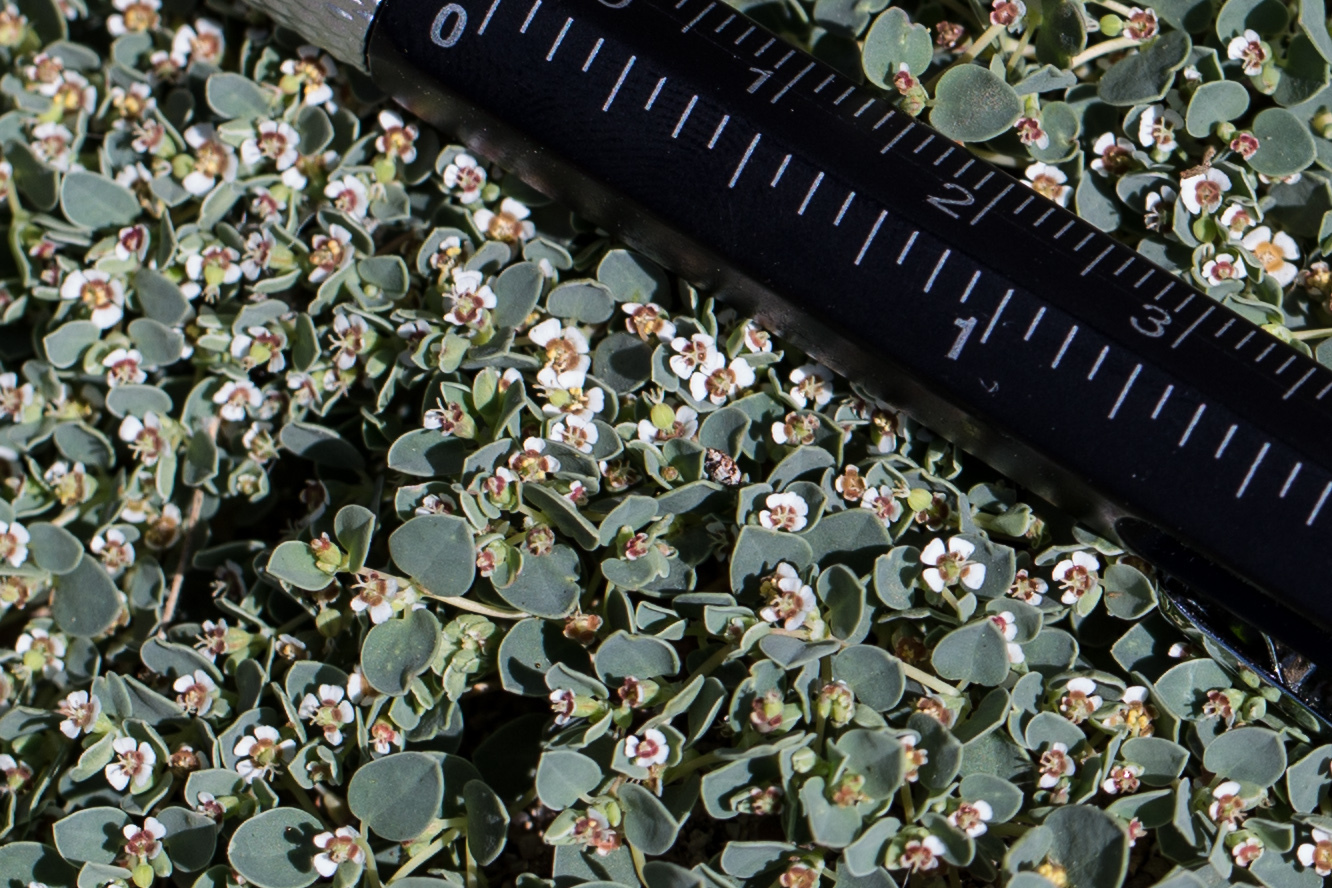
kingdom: Plantae
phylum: Tracheophyta
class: Magnoliopsida
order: Malpighiales
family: Euphorbiaceae
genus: Euphorbia
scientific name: Euphorbia albomarginata
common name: Whitemargin sandmat
